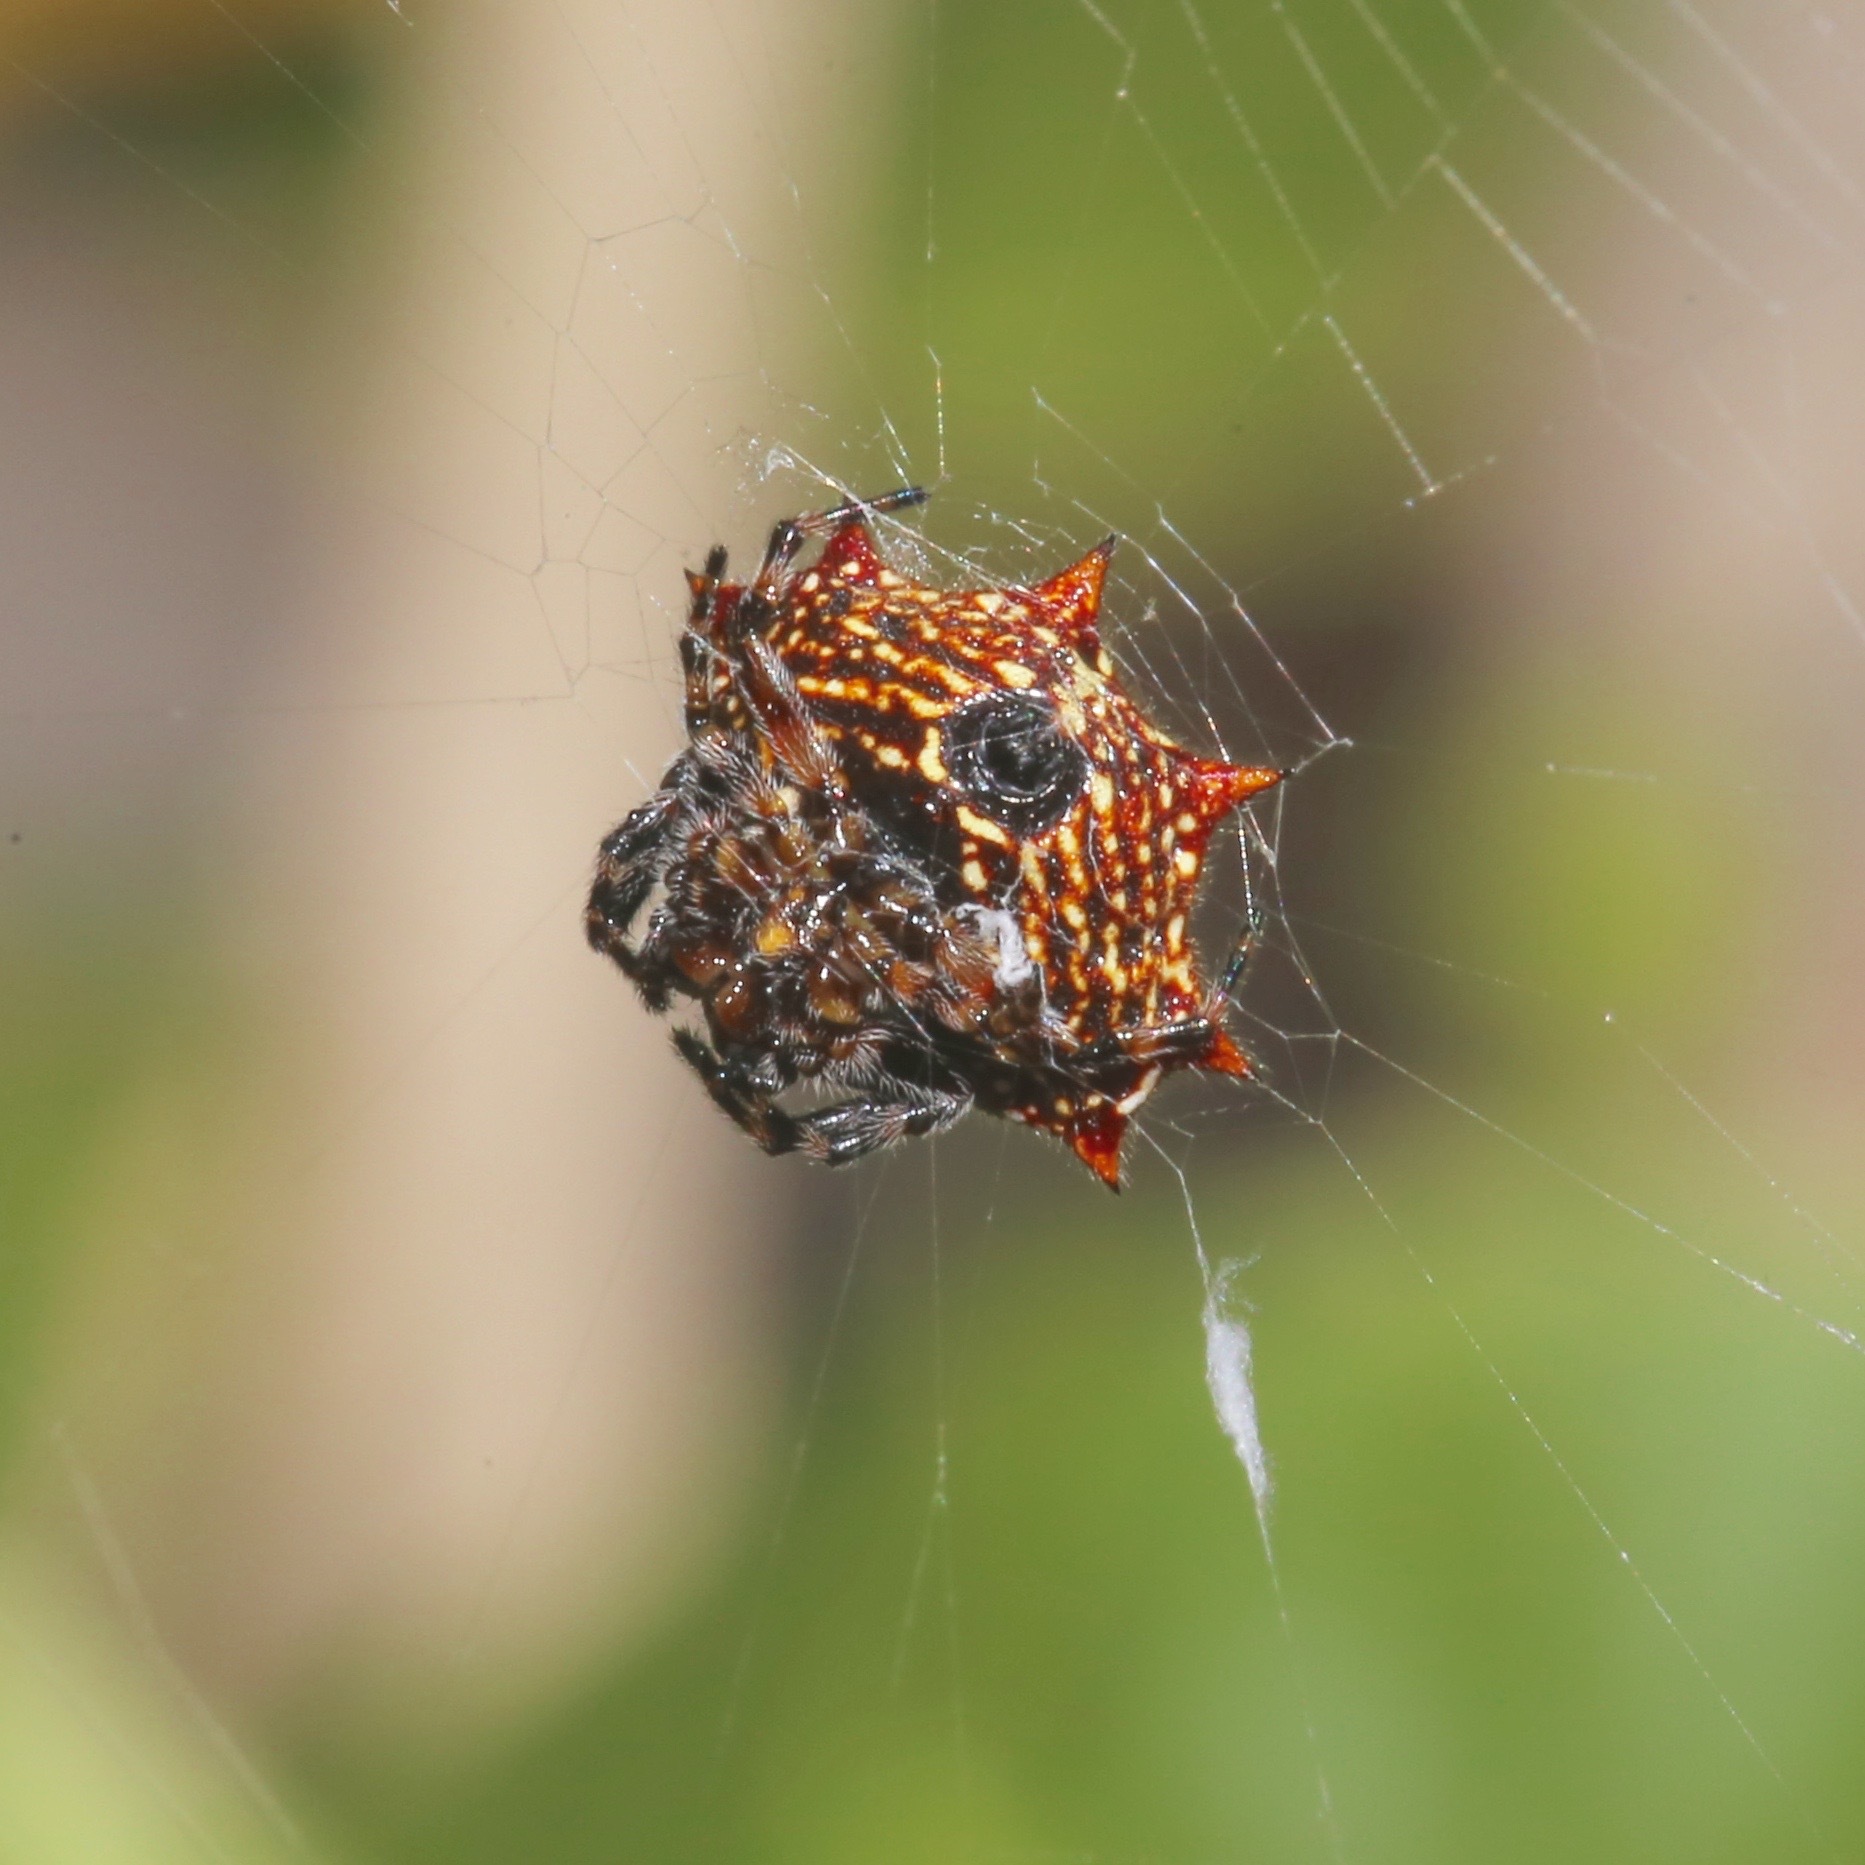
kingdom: Animalia
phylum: Arthropoda
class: Arachnida
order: Araneae
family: Araneidae
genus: Gasteracantha
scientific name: Gasteracantha cancriformis
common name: Orb weavers
